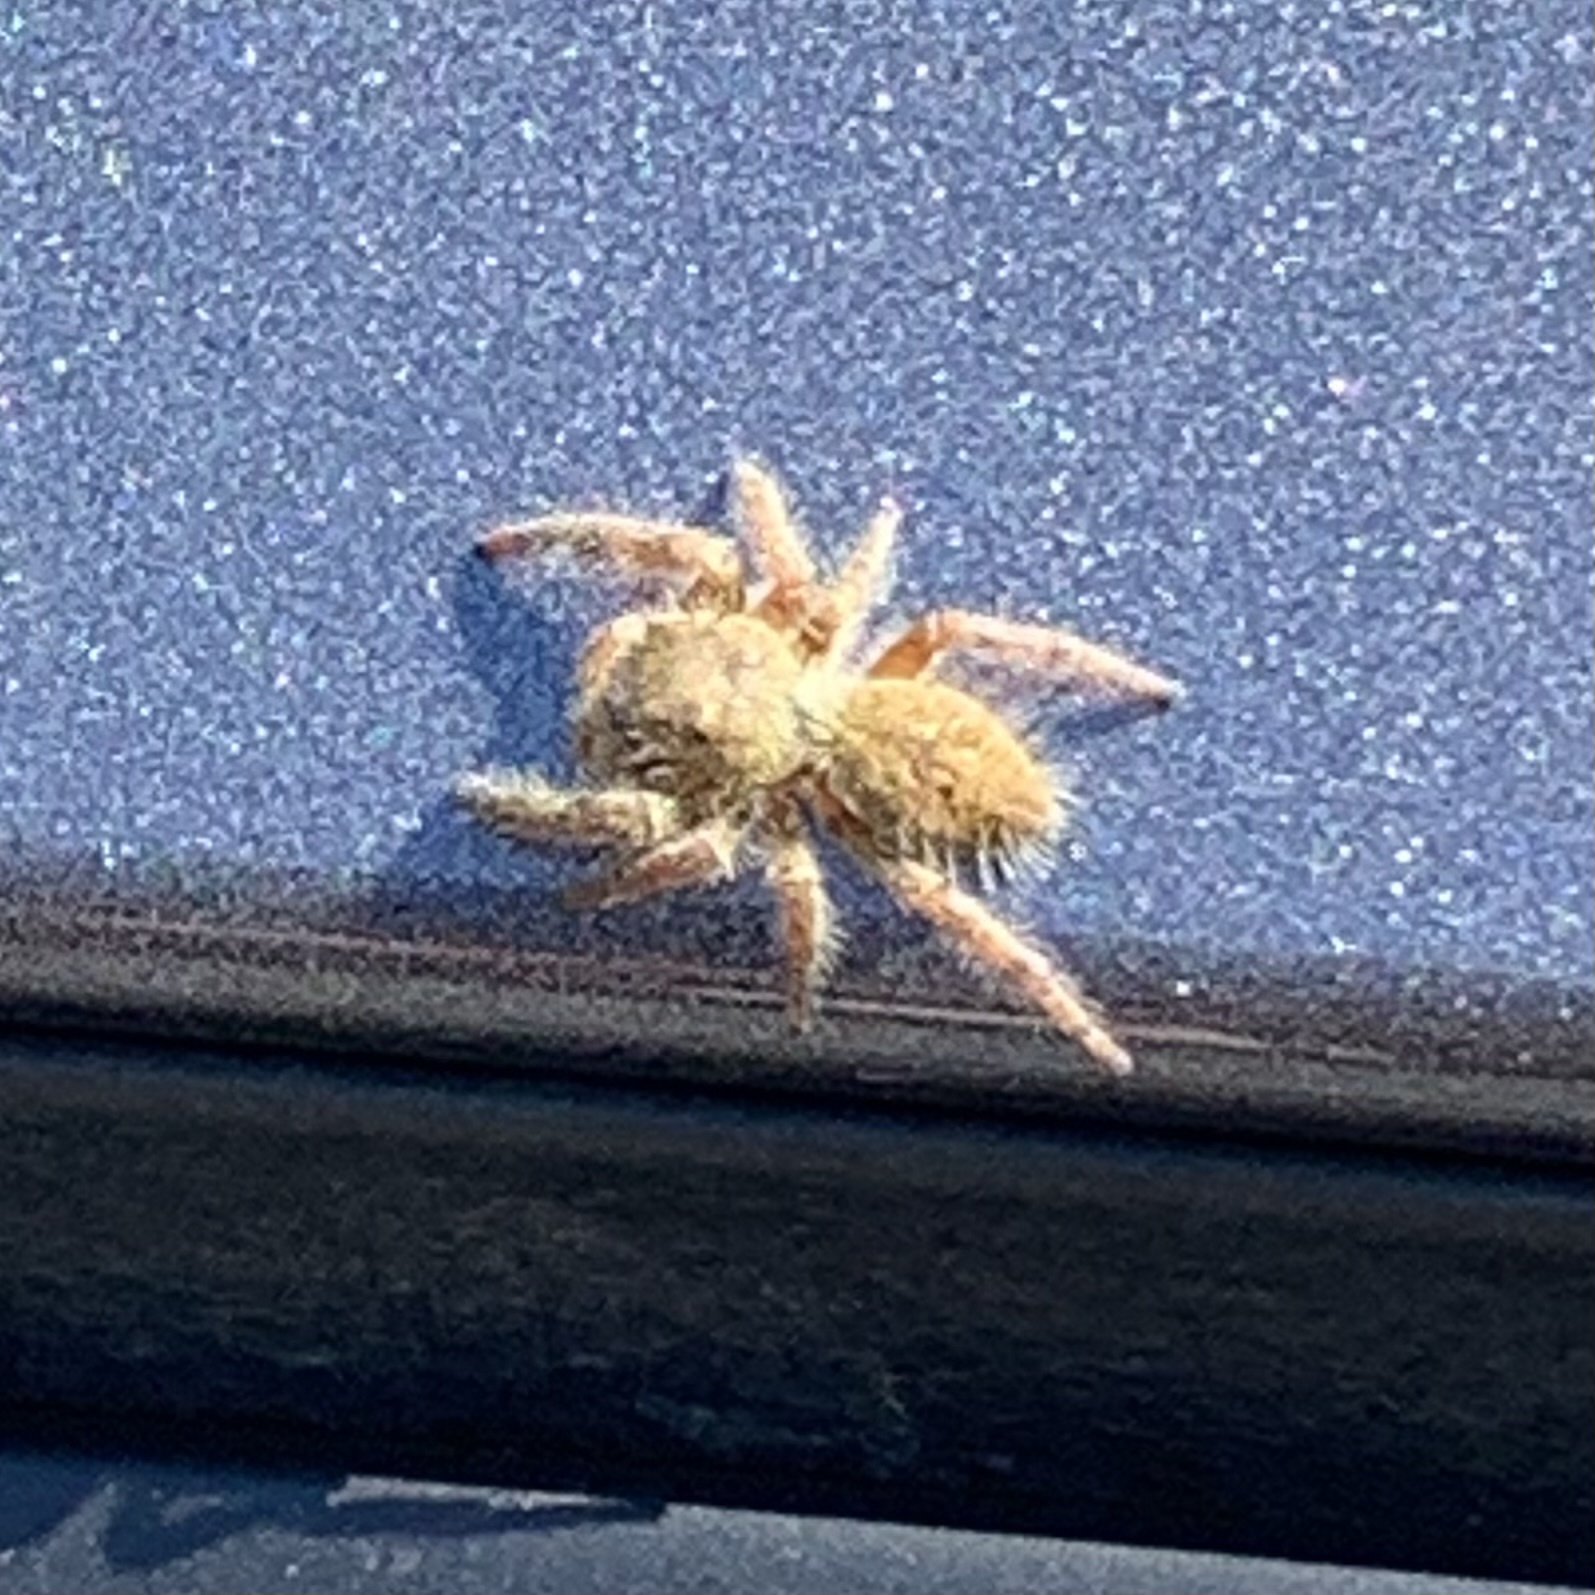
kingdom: Animalia
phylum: Arthropoda
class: Arachnida
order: Araneae
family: Salticidae
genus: Phidippus
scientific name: Phidippus princeps
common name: Grayish jumping spider
